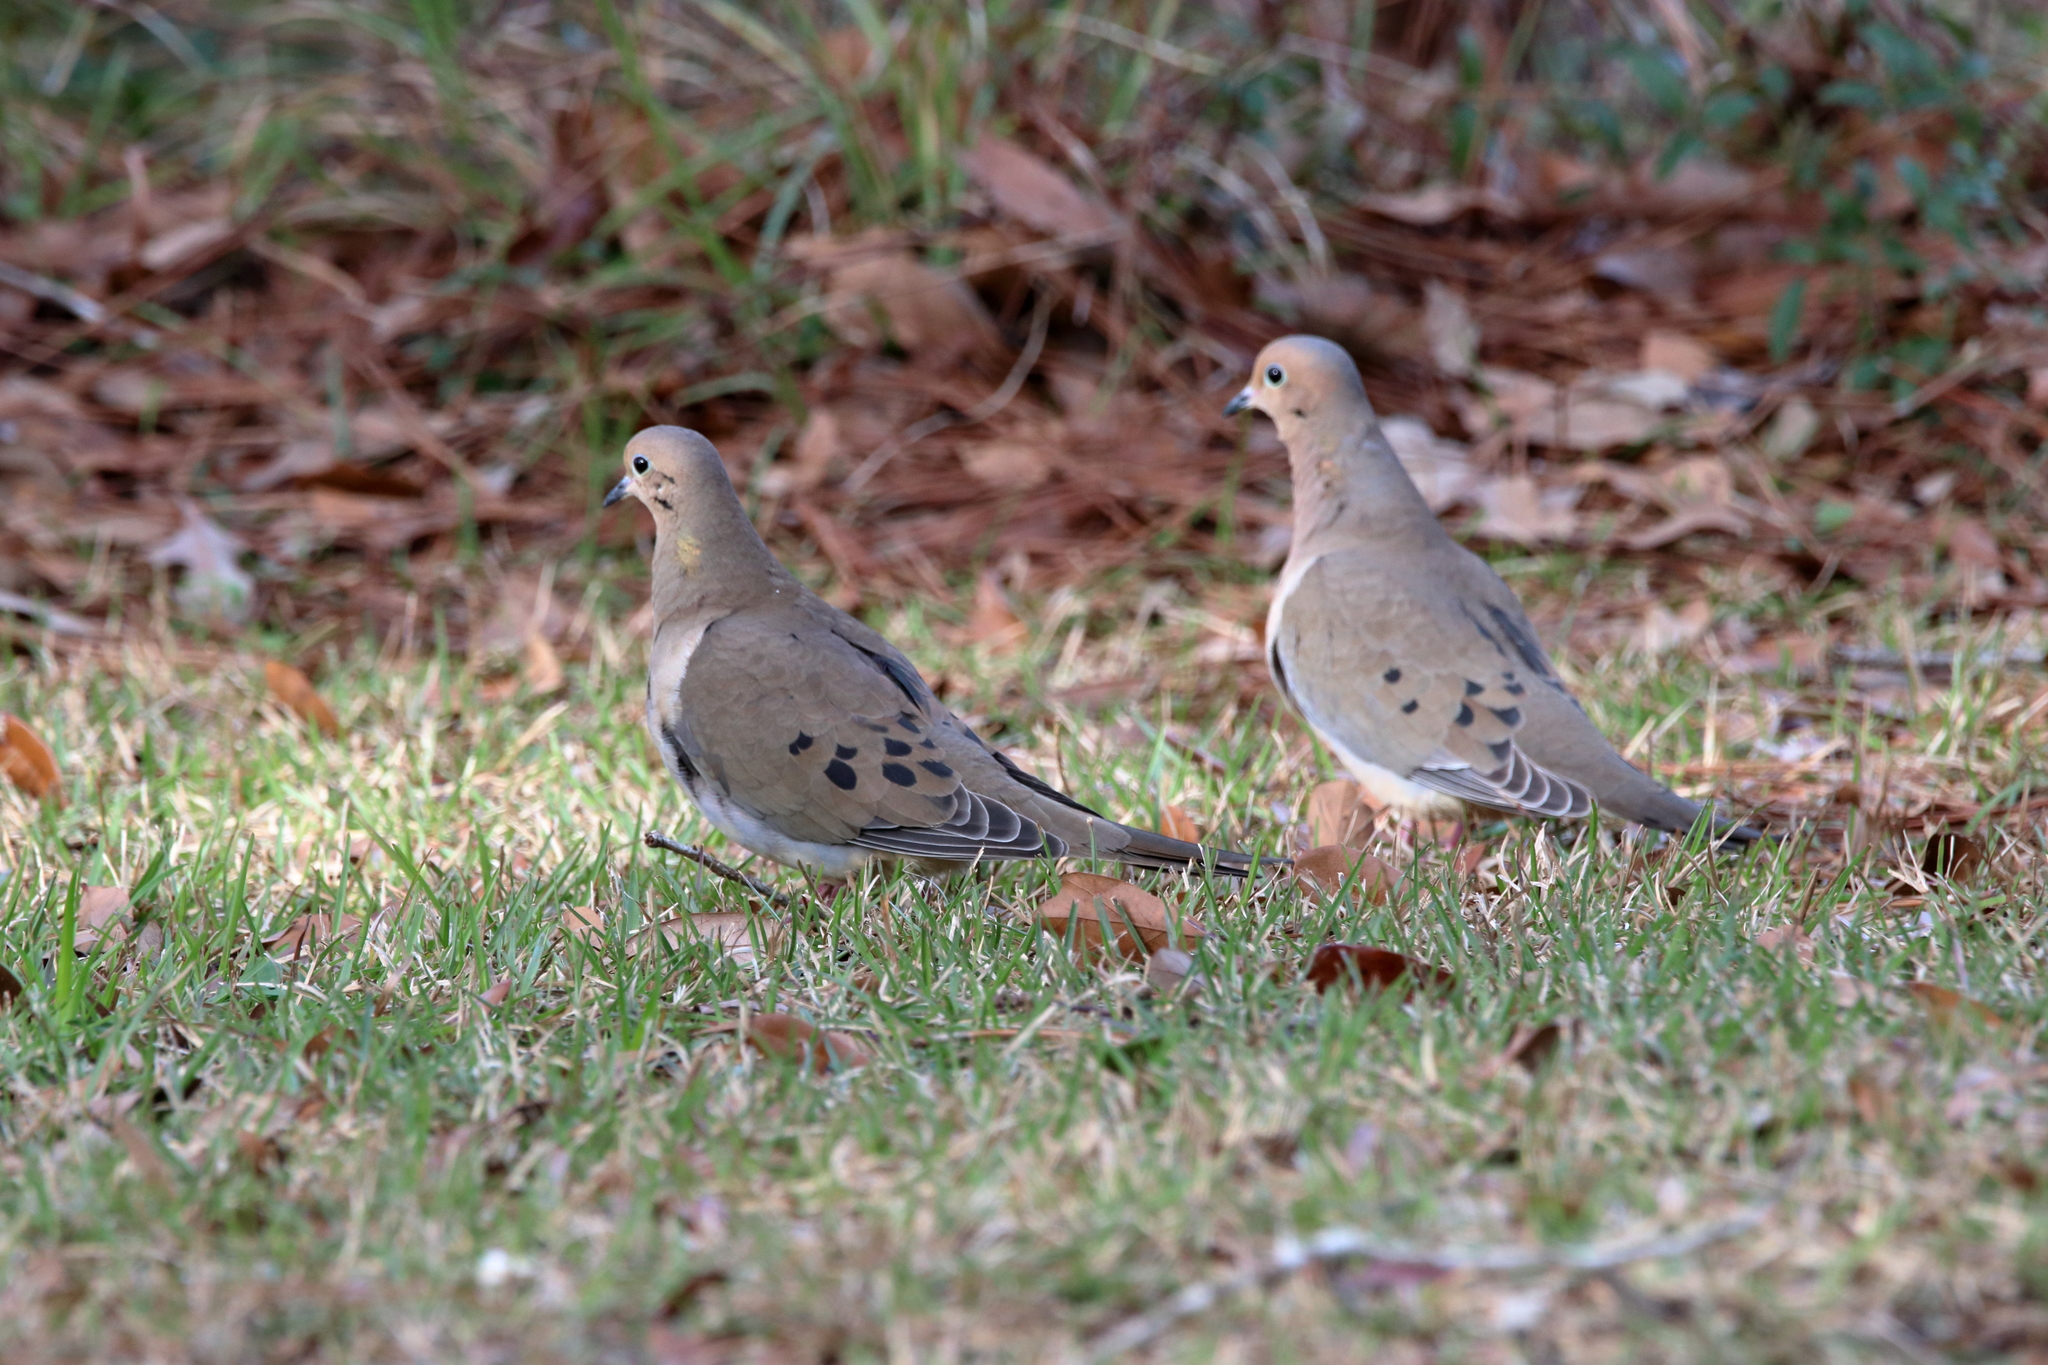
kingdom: Animalia
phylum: Chordata
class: Aves
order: Columbiformes
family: Columbidae
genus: Zenaida
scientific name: Zenaida macroura
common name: Mourning dove
